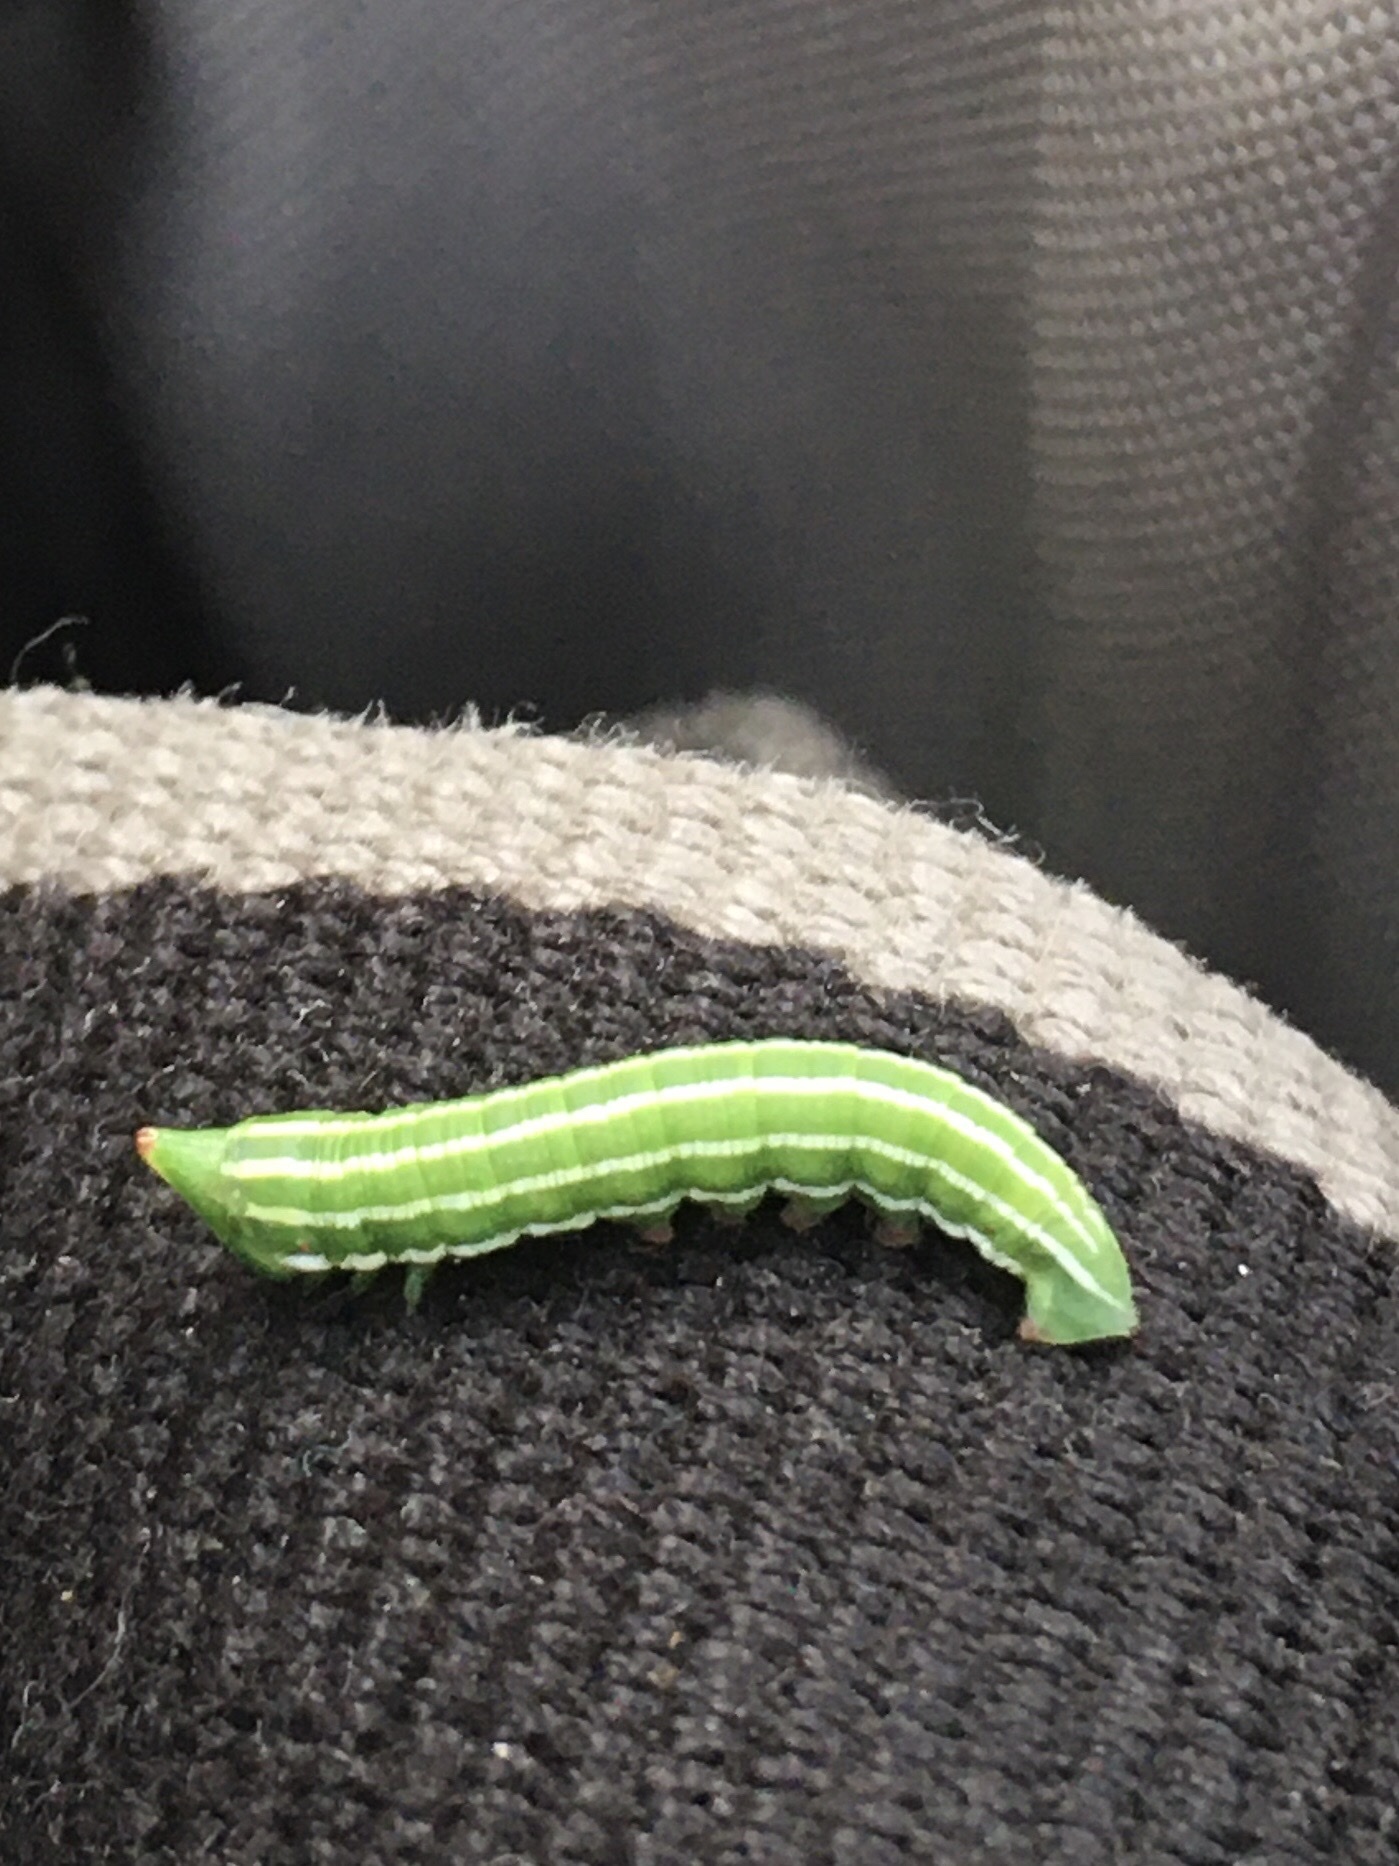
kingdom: Animalia
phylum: Arthropoda
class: Insecta
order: Lepidoptera
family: Sphingidae
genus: Lapara
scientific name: Lapara bombycoides
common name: Northern pine sphinx
